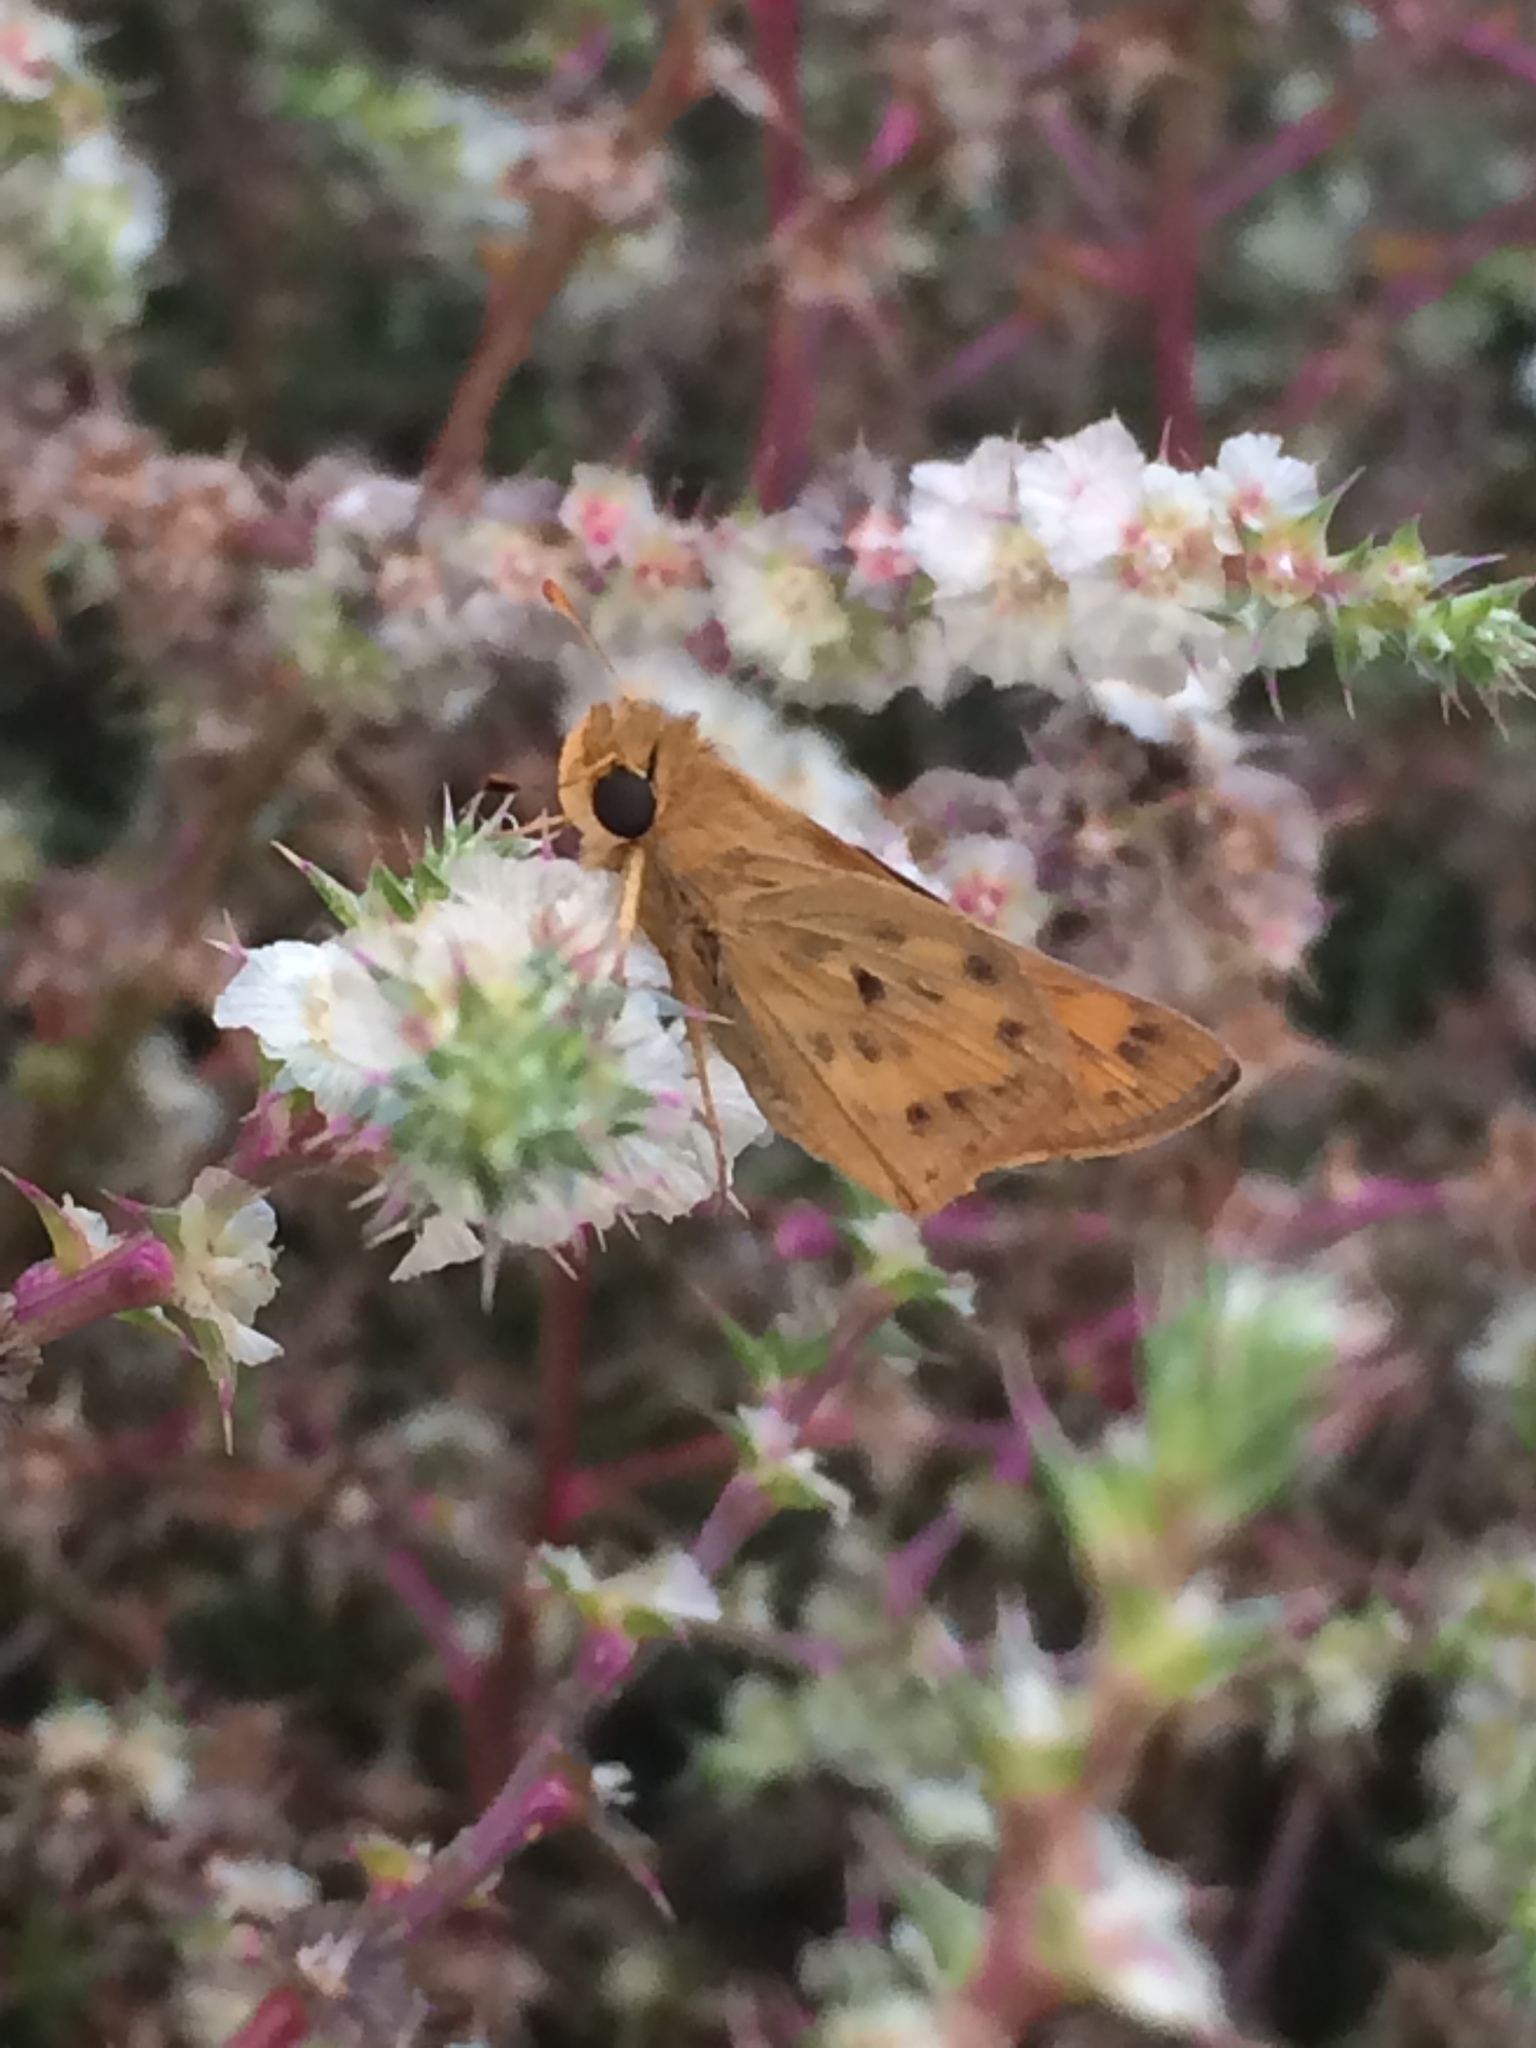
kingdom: Animalia
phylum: Arthropoda
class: Insecta
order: Lepidoptera
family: Hesperiidae
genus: Hylephila
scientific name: Hylephila phyleus
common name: Fiery skipper
